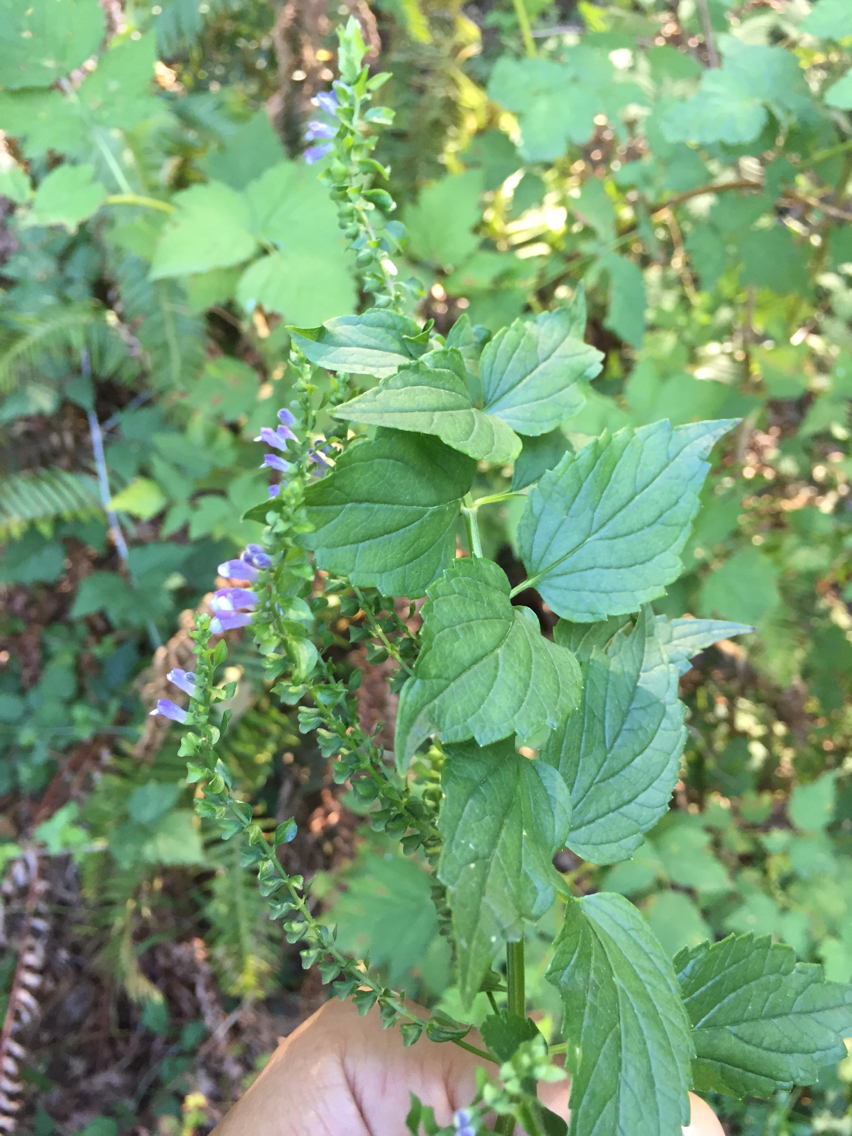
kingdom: Plantae
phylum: Tracheophyta
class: Magnoliopsida
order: Lamiales
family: Lamiaceae
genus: Scutellaria
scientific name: Scutellaria lateriflora
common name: Blue skullcap
